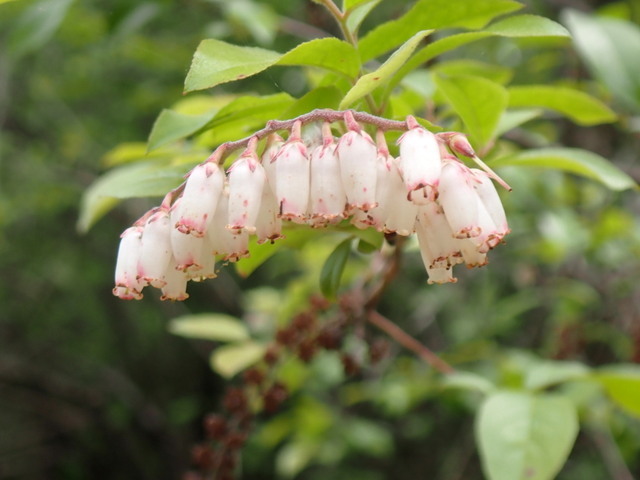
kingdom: Plantae
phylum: Tracheophyta
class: Magnoliopsida
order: Ericales
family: Ericaceae
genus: Eubotrys
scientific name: Eubotrys racemosa
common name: Fetterbush
